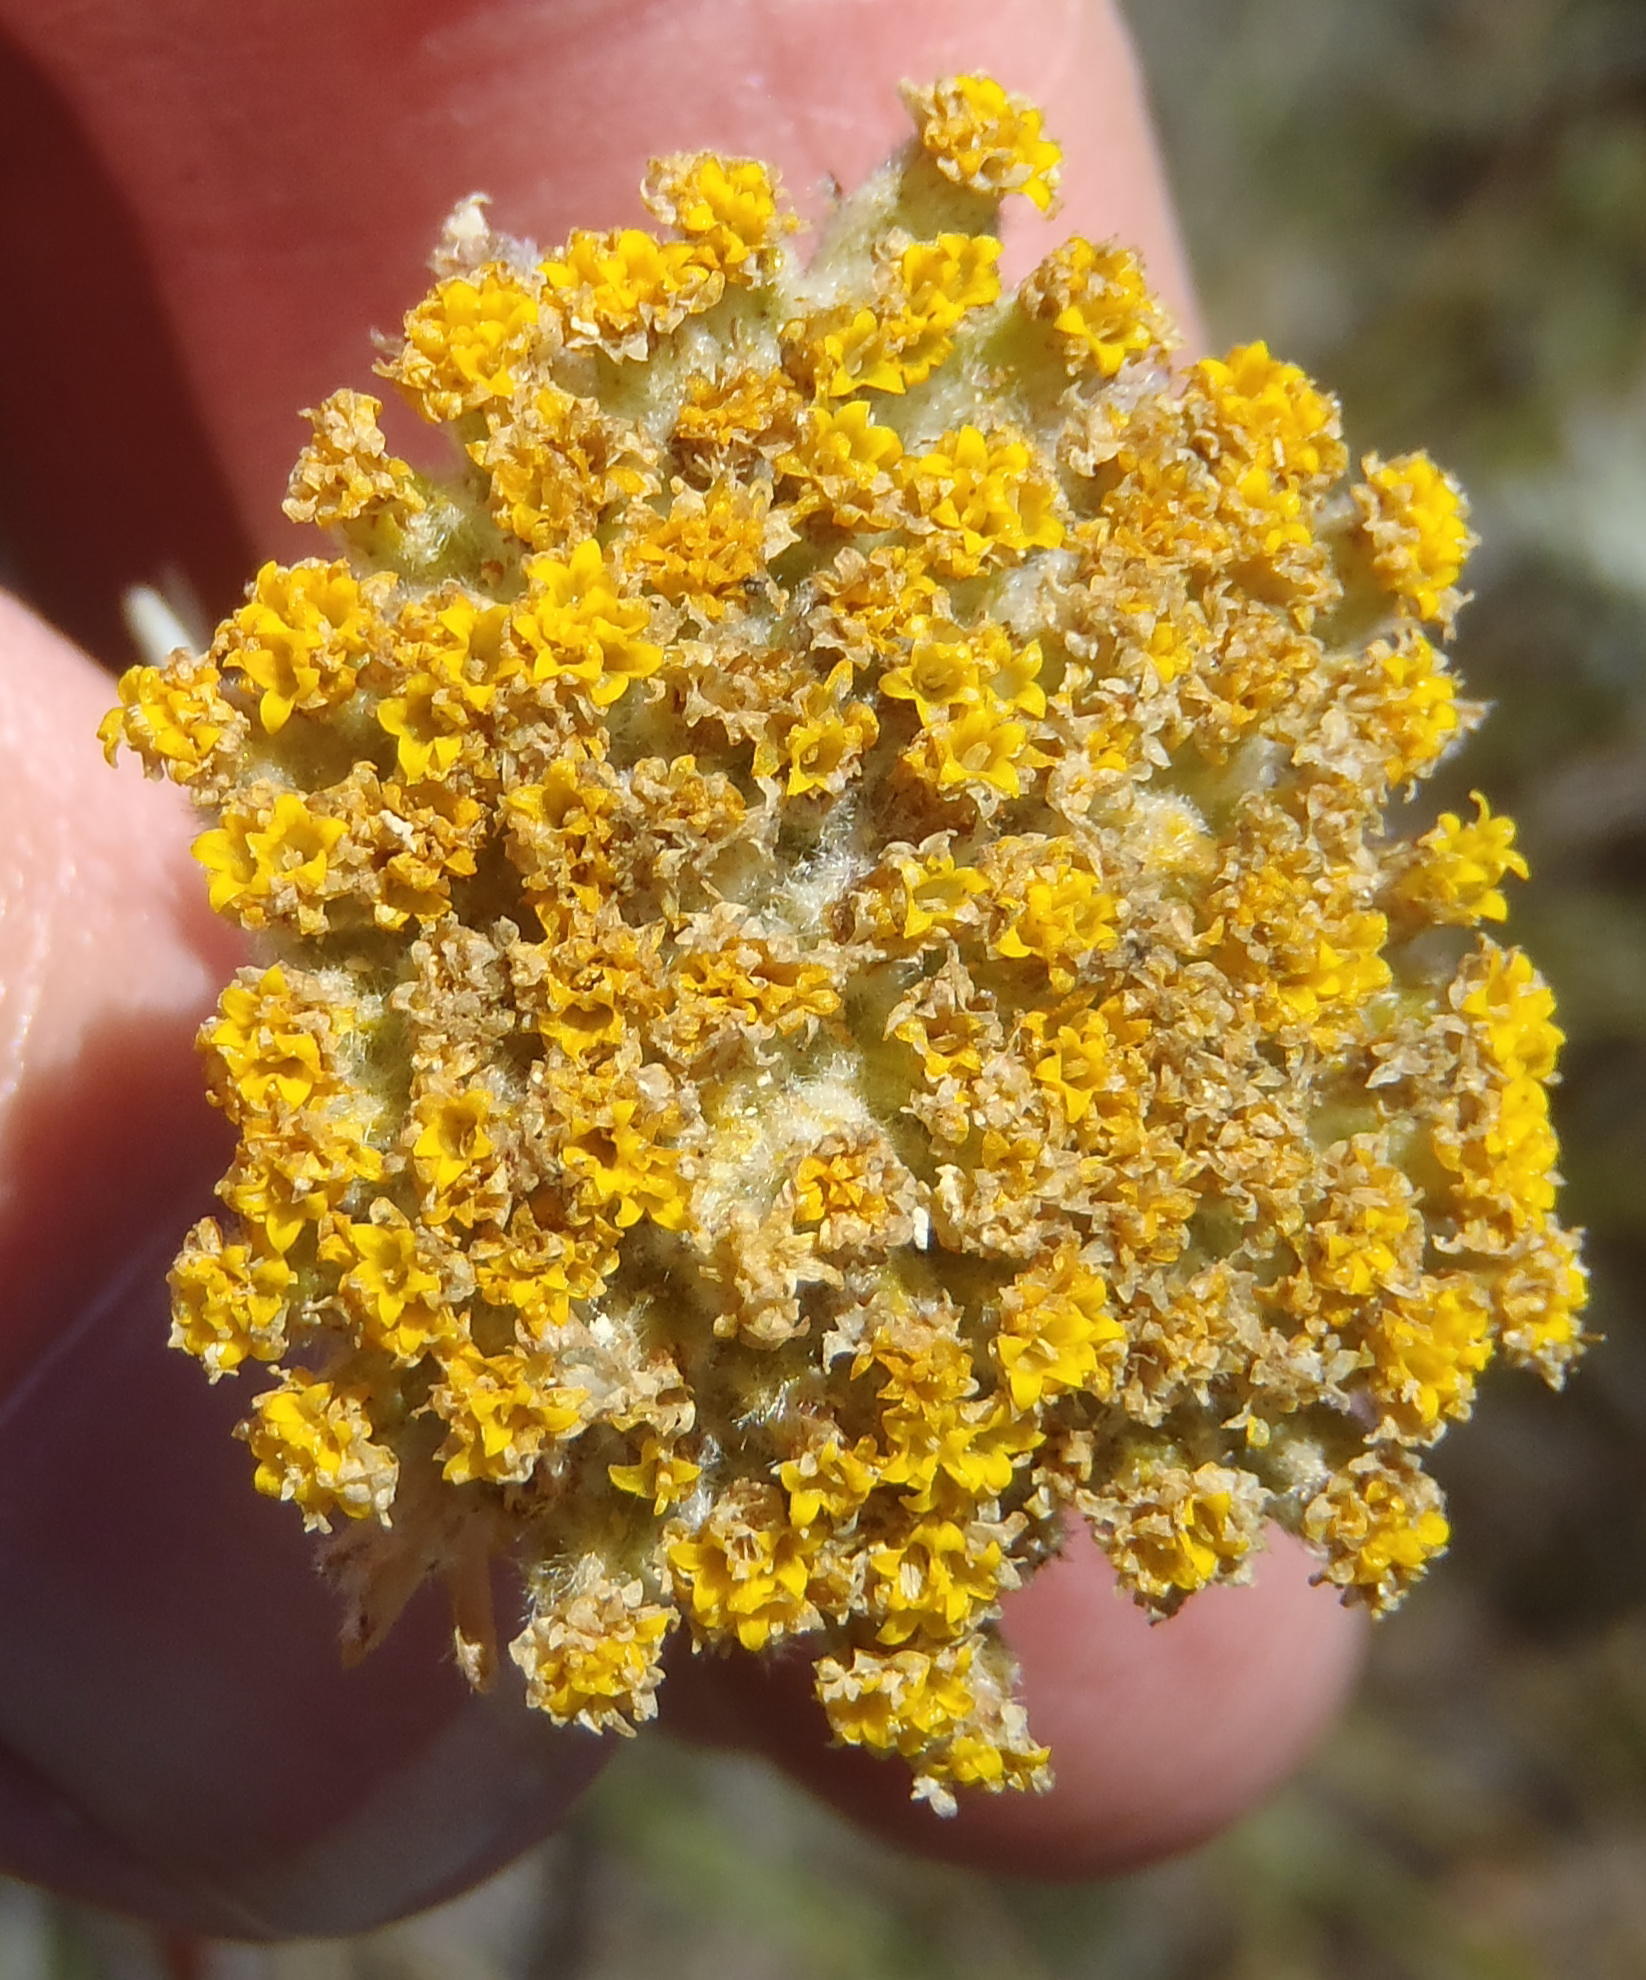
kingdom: Plantae
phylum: Tracheophyta
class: Magnoliopsida
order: Asterales
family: Asteraceae
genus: Athanasia
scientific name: Athanasia pinnata
